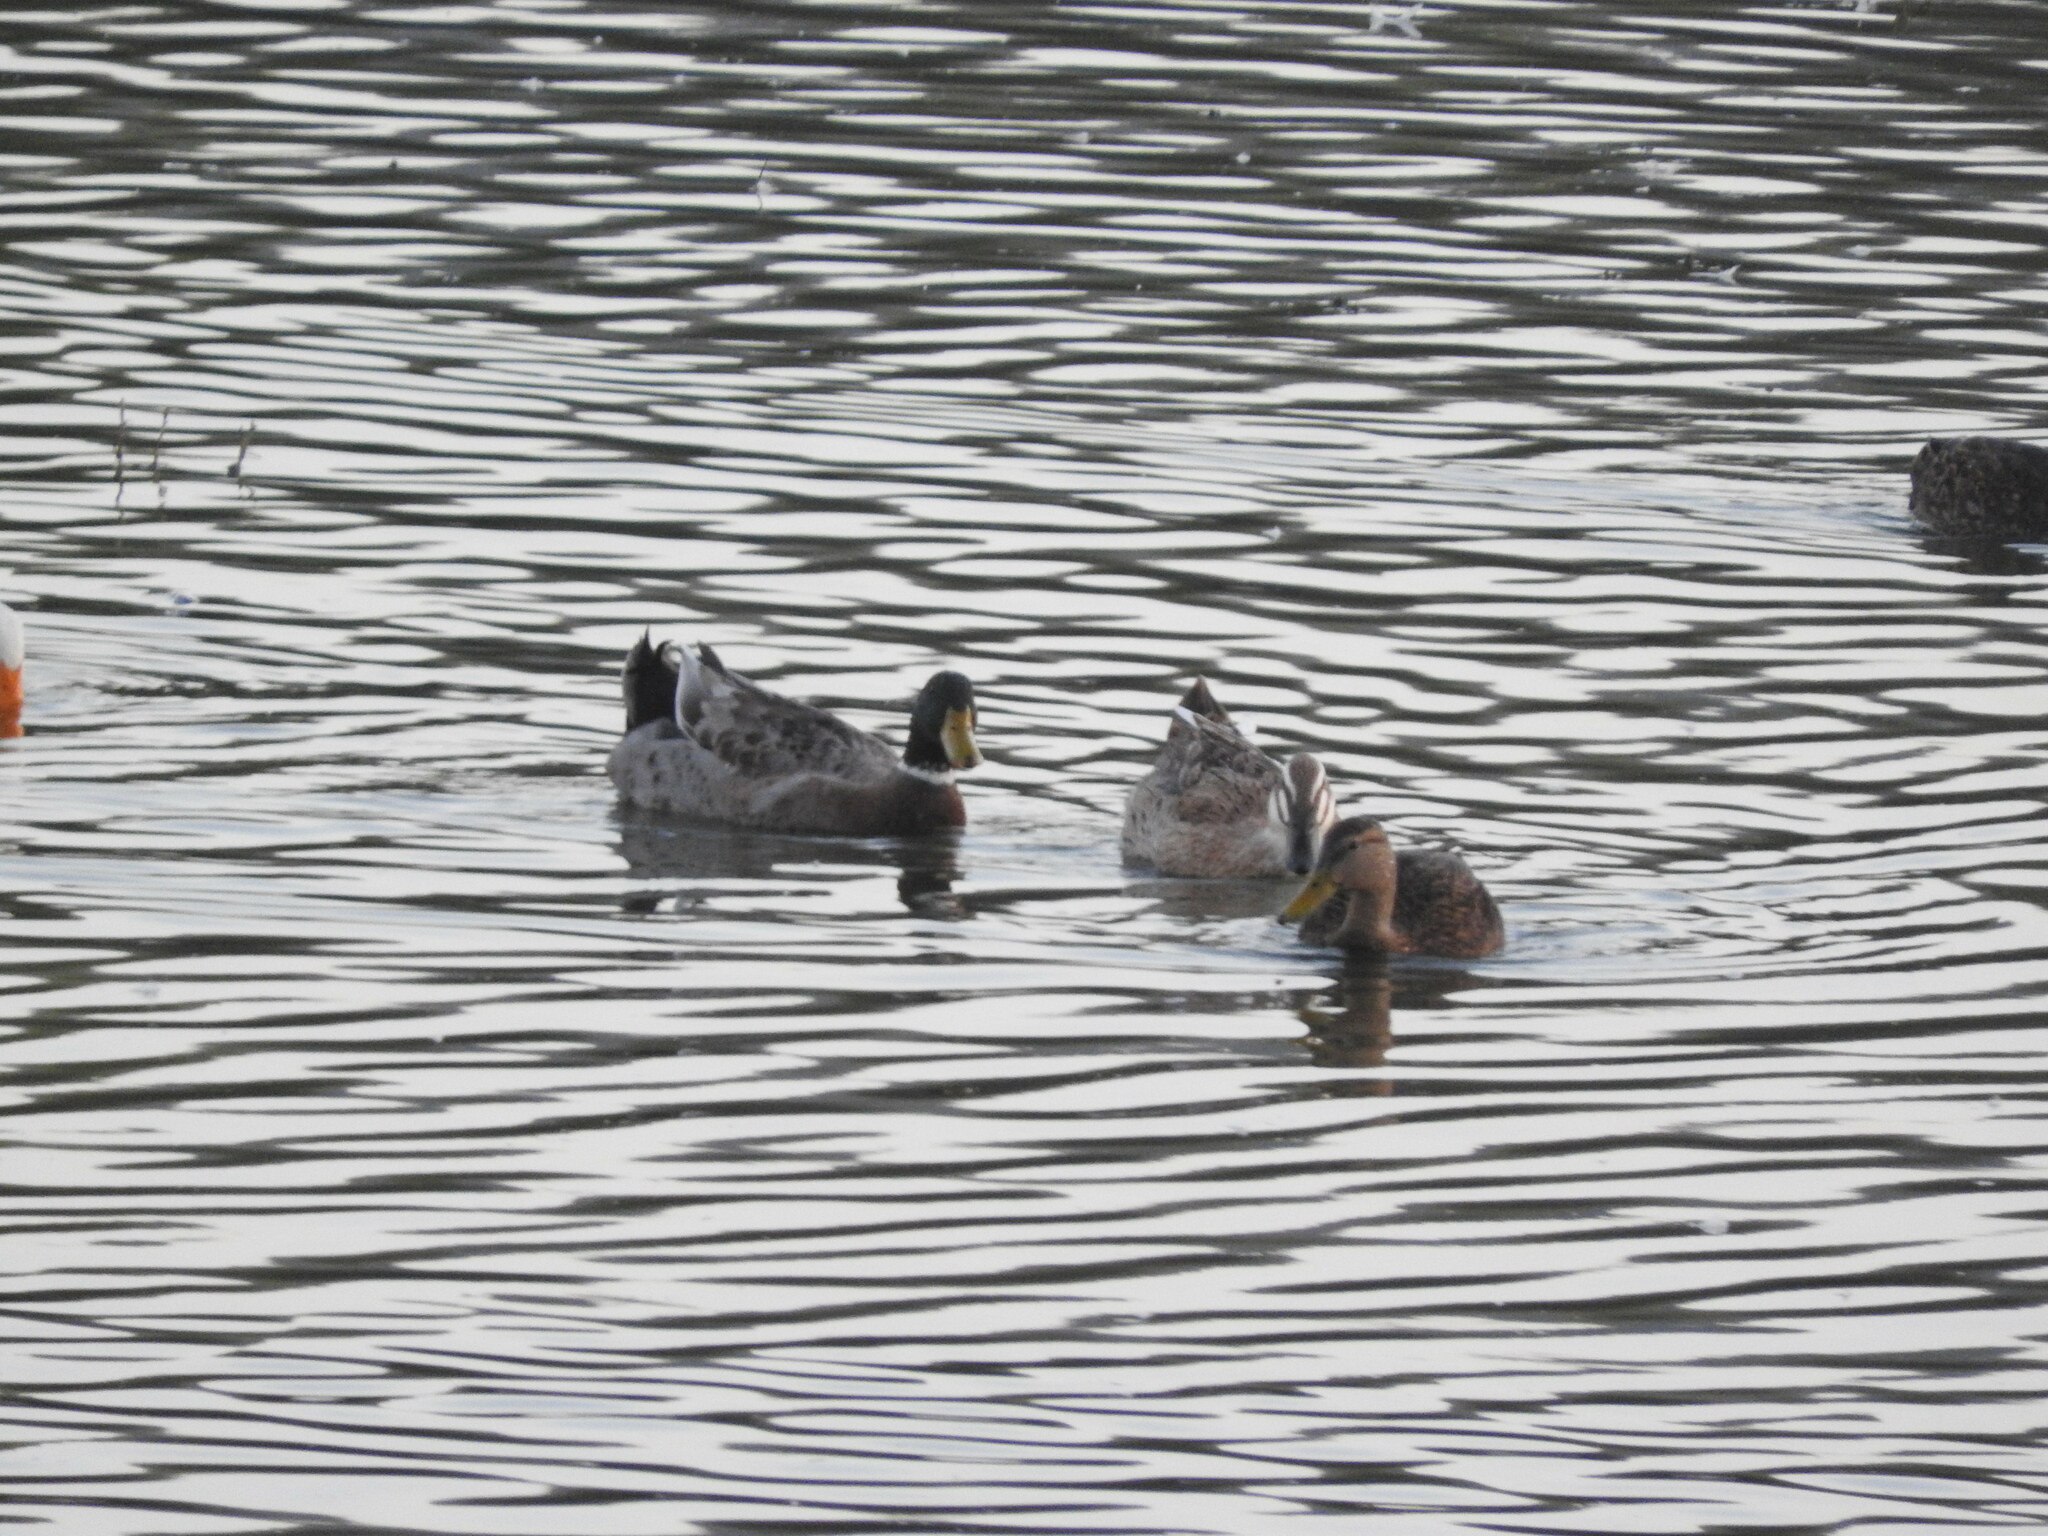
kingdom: Animalia
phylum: Chordata
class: Aves
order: Anseriformes
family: Anatidae
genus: Anas
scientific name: Anas platyrhynchos
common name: Mallard
